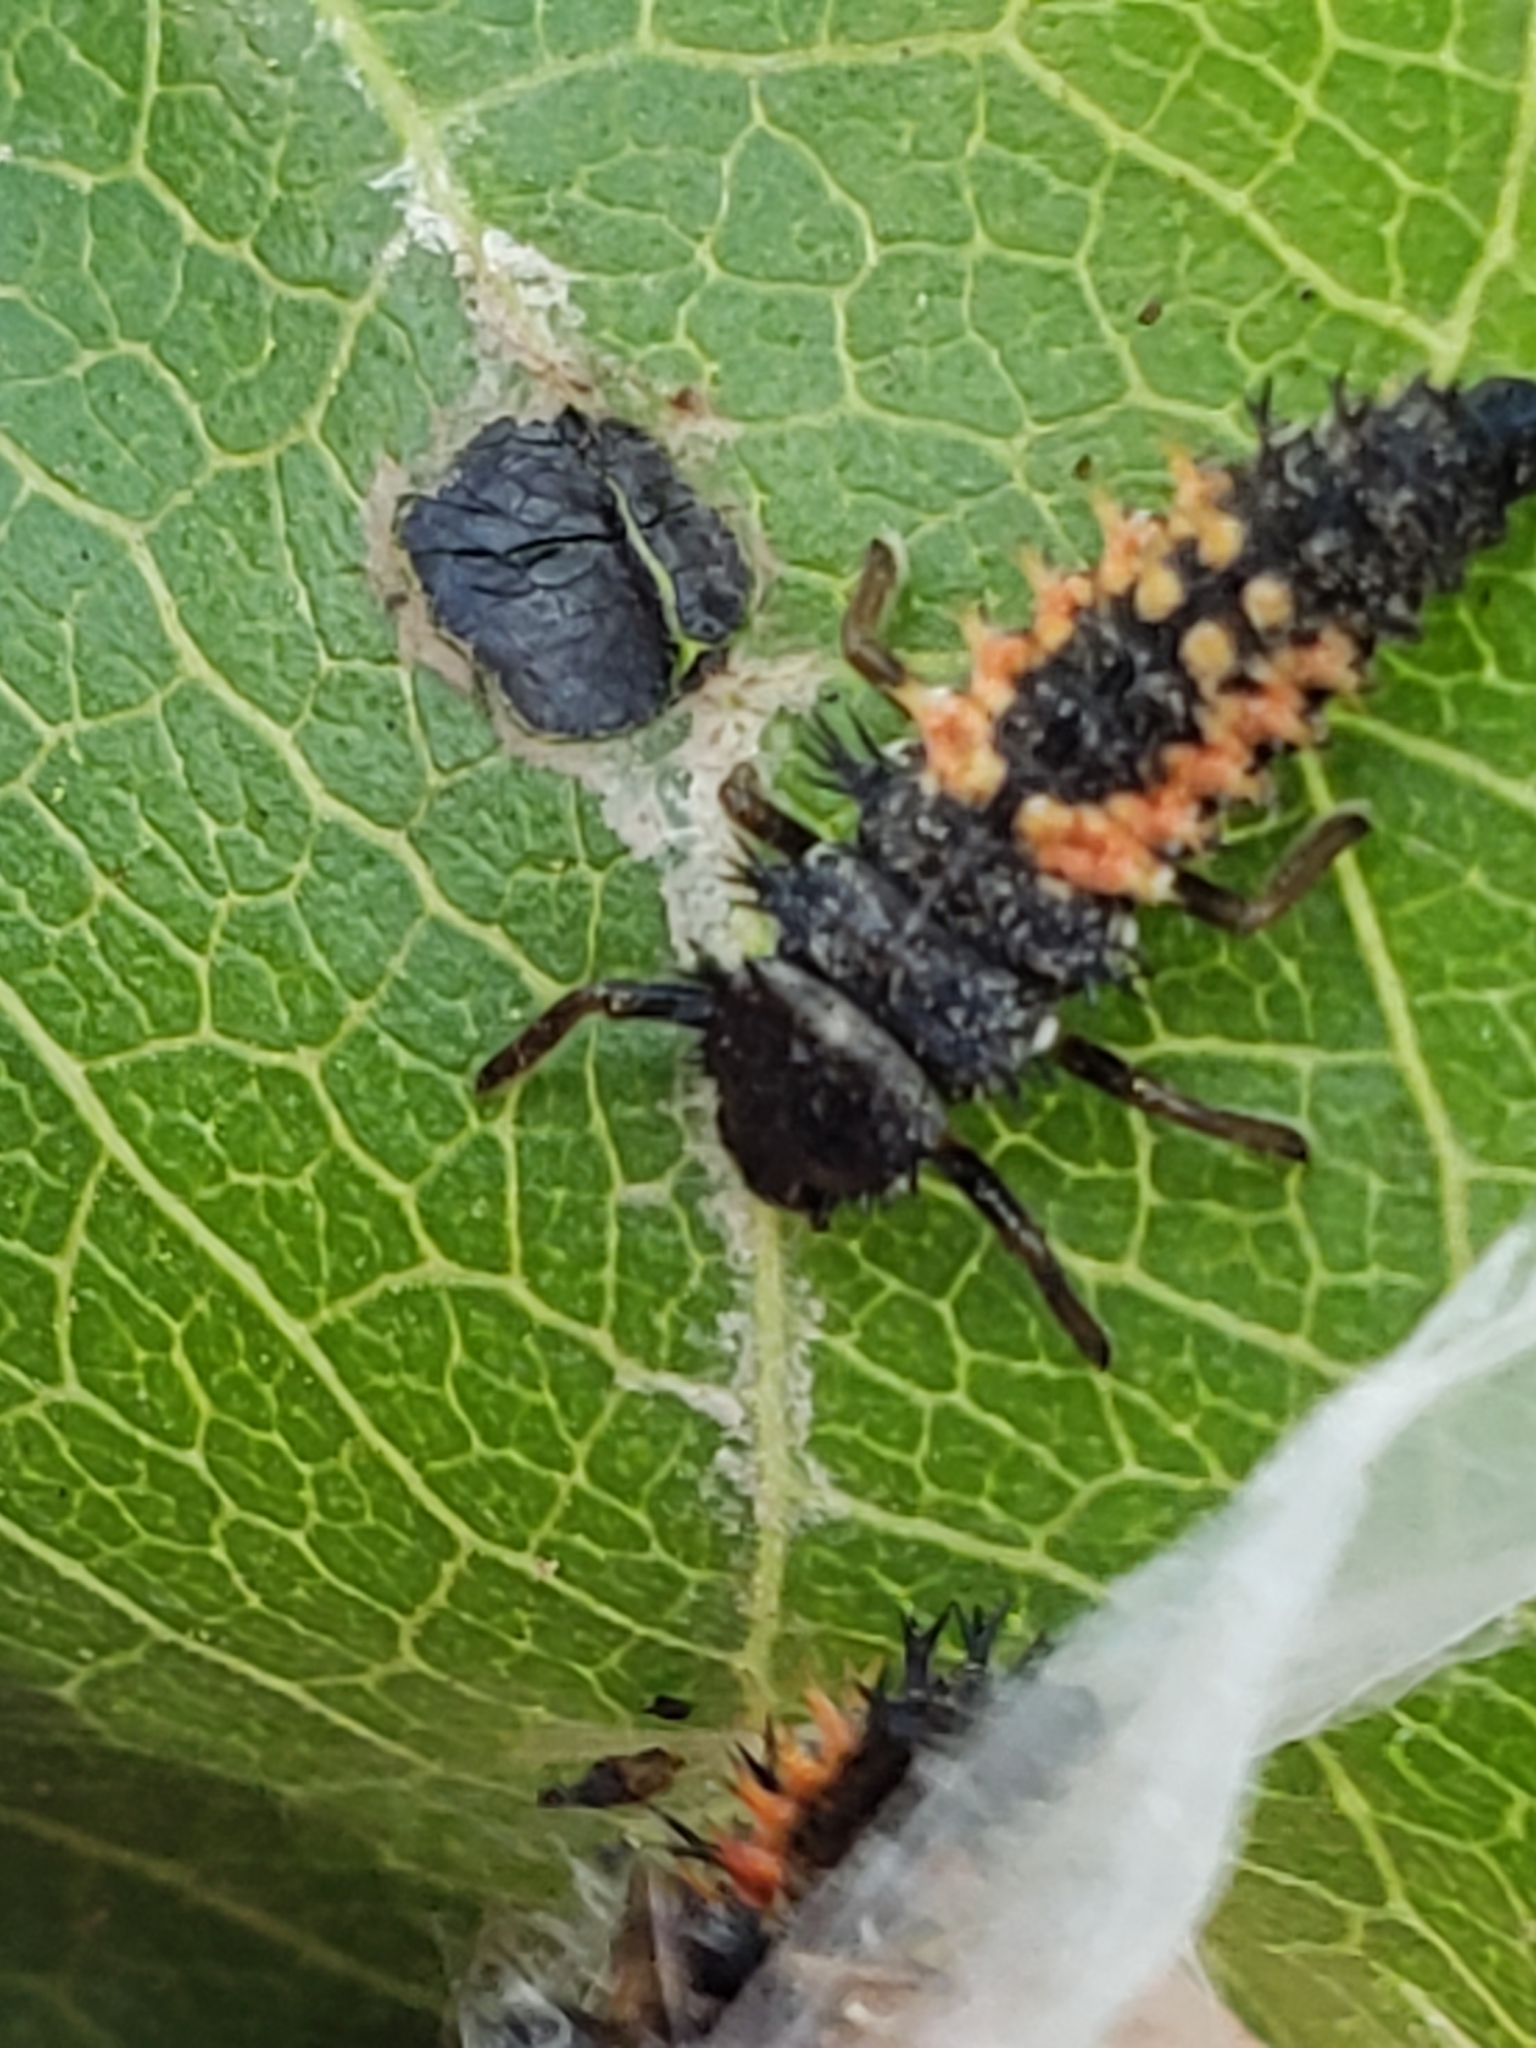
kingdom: Animalia
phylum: Arthropoda
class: Insecta
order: Coleoptera
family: Coccinellidae
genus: Harmonia
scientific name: Harmonia axyridis
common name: Harlequin ladybird
